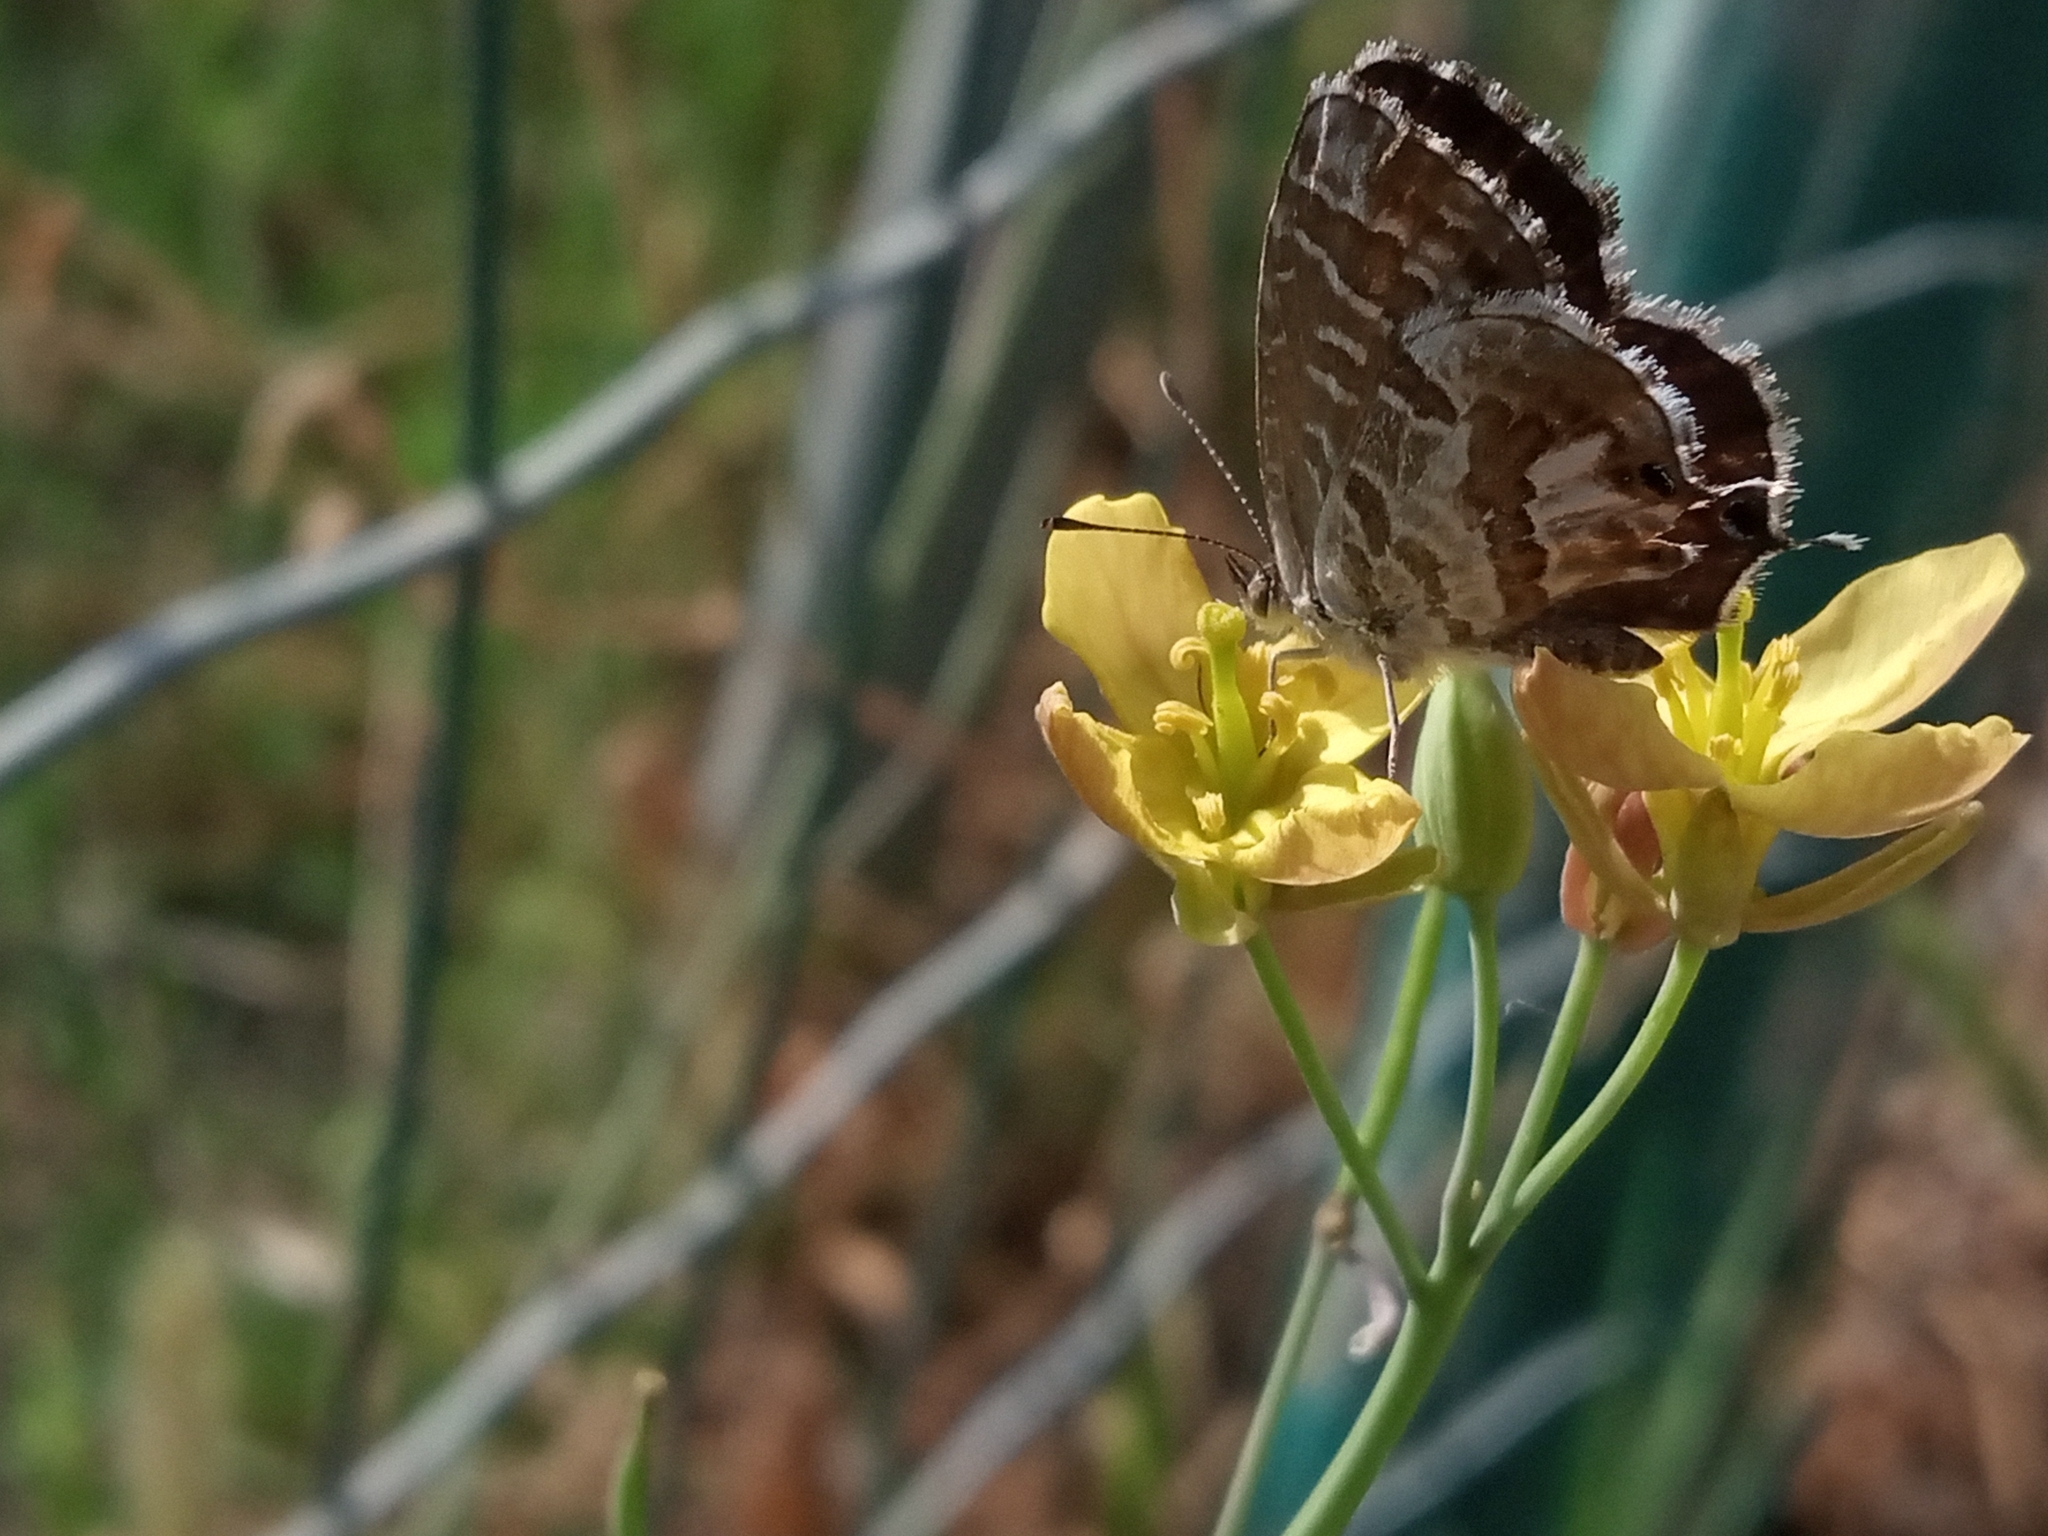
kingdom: Animalia
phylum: Arthropoda
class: Insecta
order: Lepidoptera
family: Lycaenidae
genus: Cacyreus
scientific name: Cacyreus marshalli
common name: Geranium bronze
